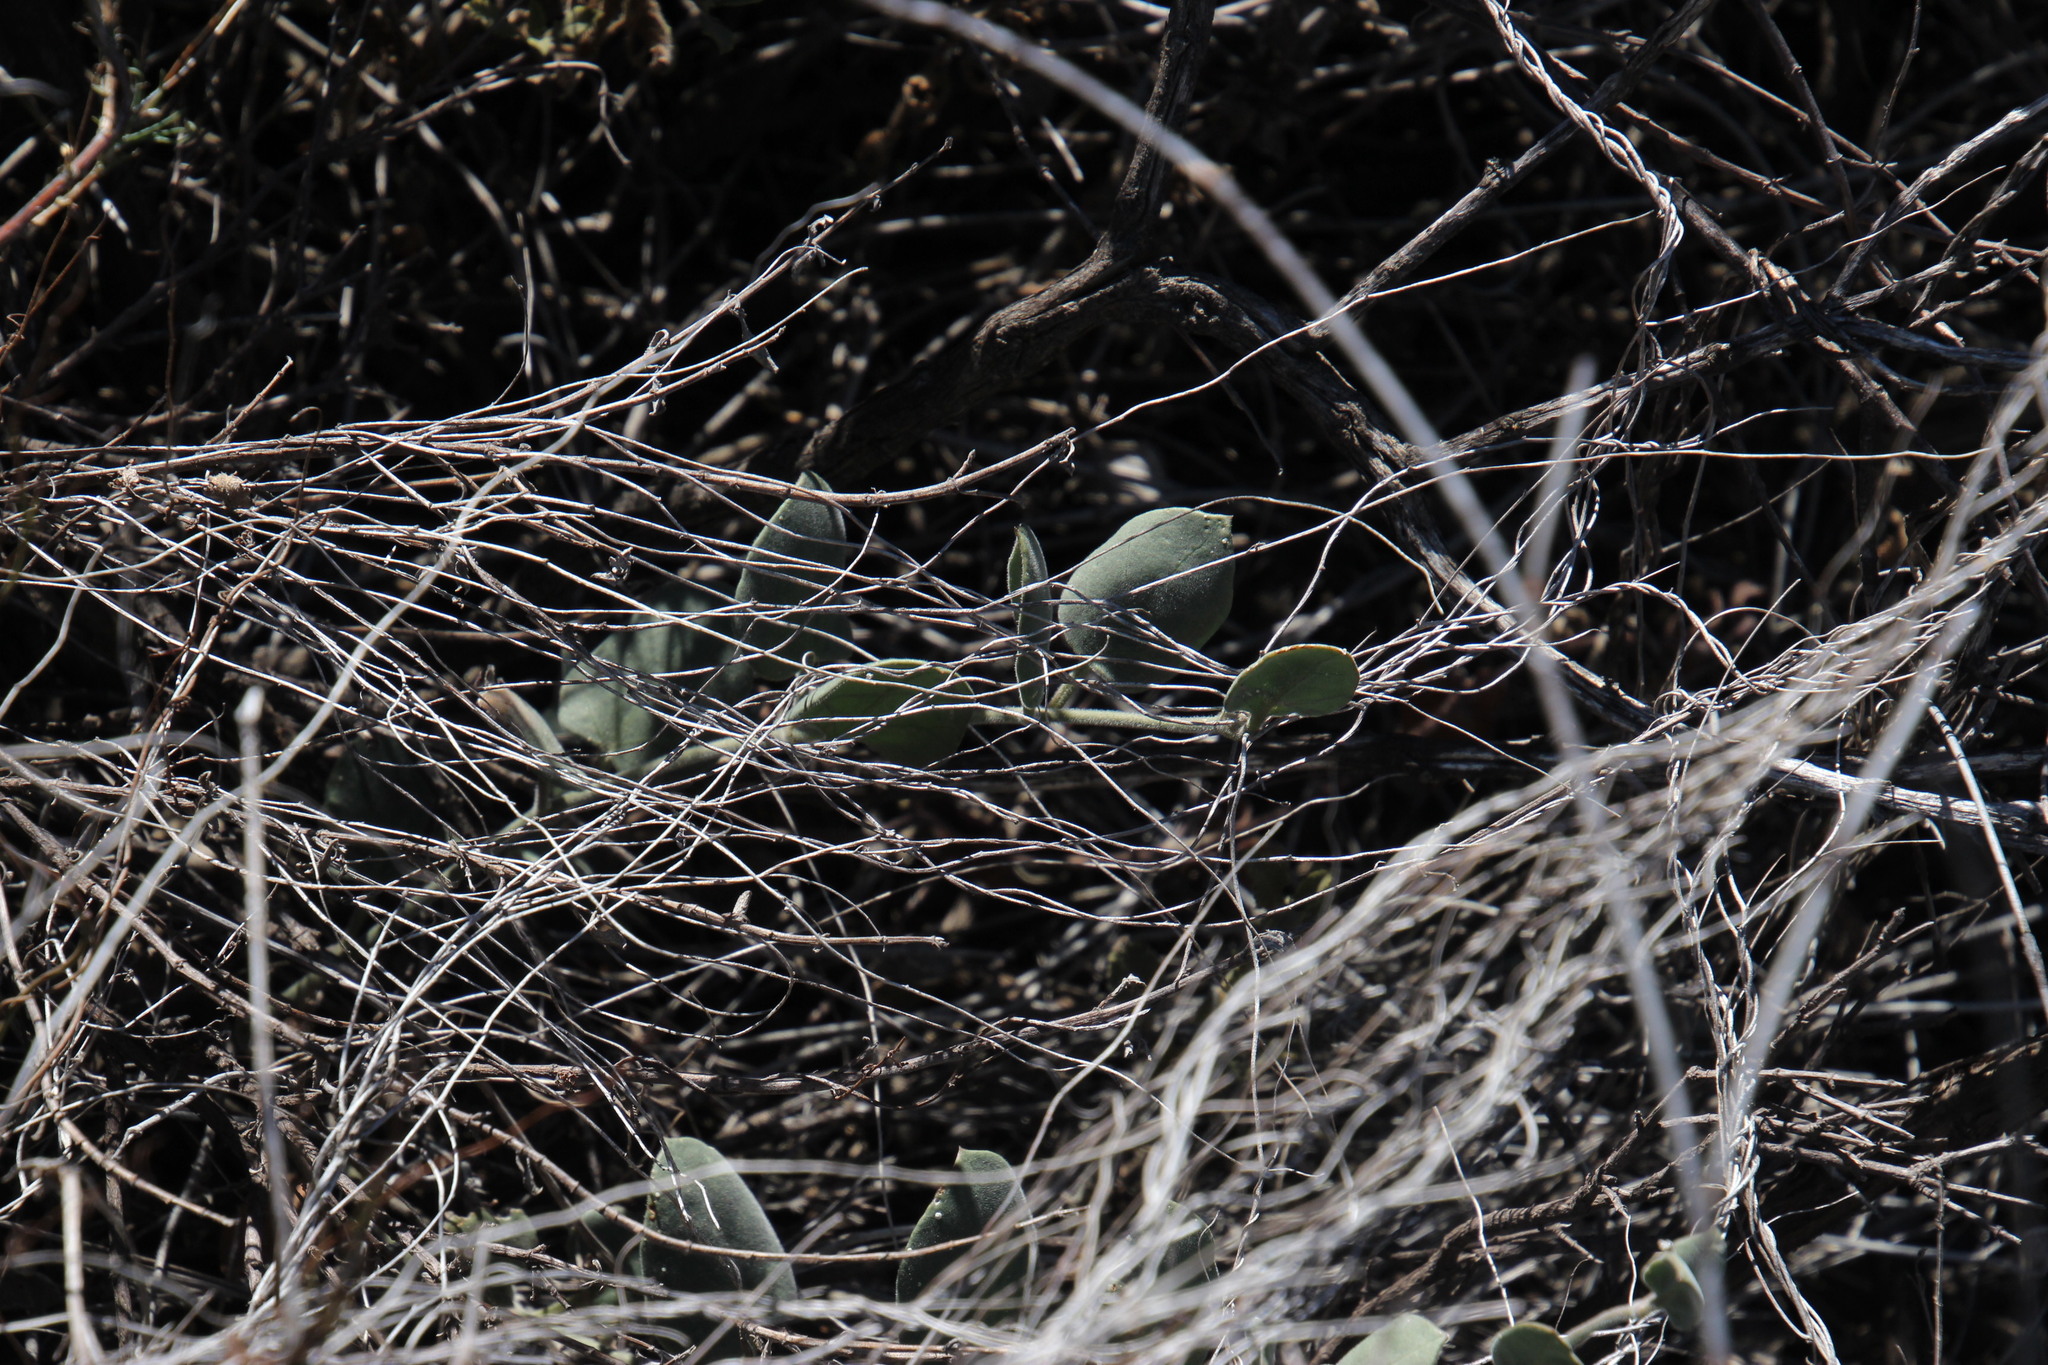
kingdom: Plantae
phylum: Tracheophyta
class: Magnoliopsida
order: Gentianales
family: Apocynaceae
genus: Cynanchum
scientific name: Cynanchum africanum
